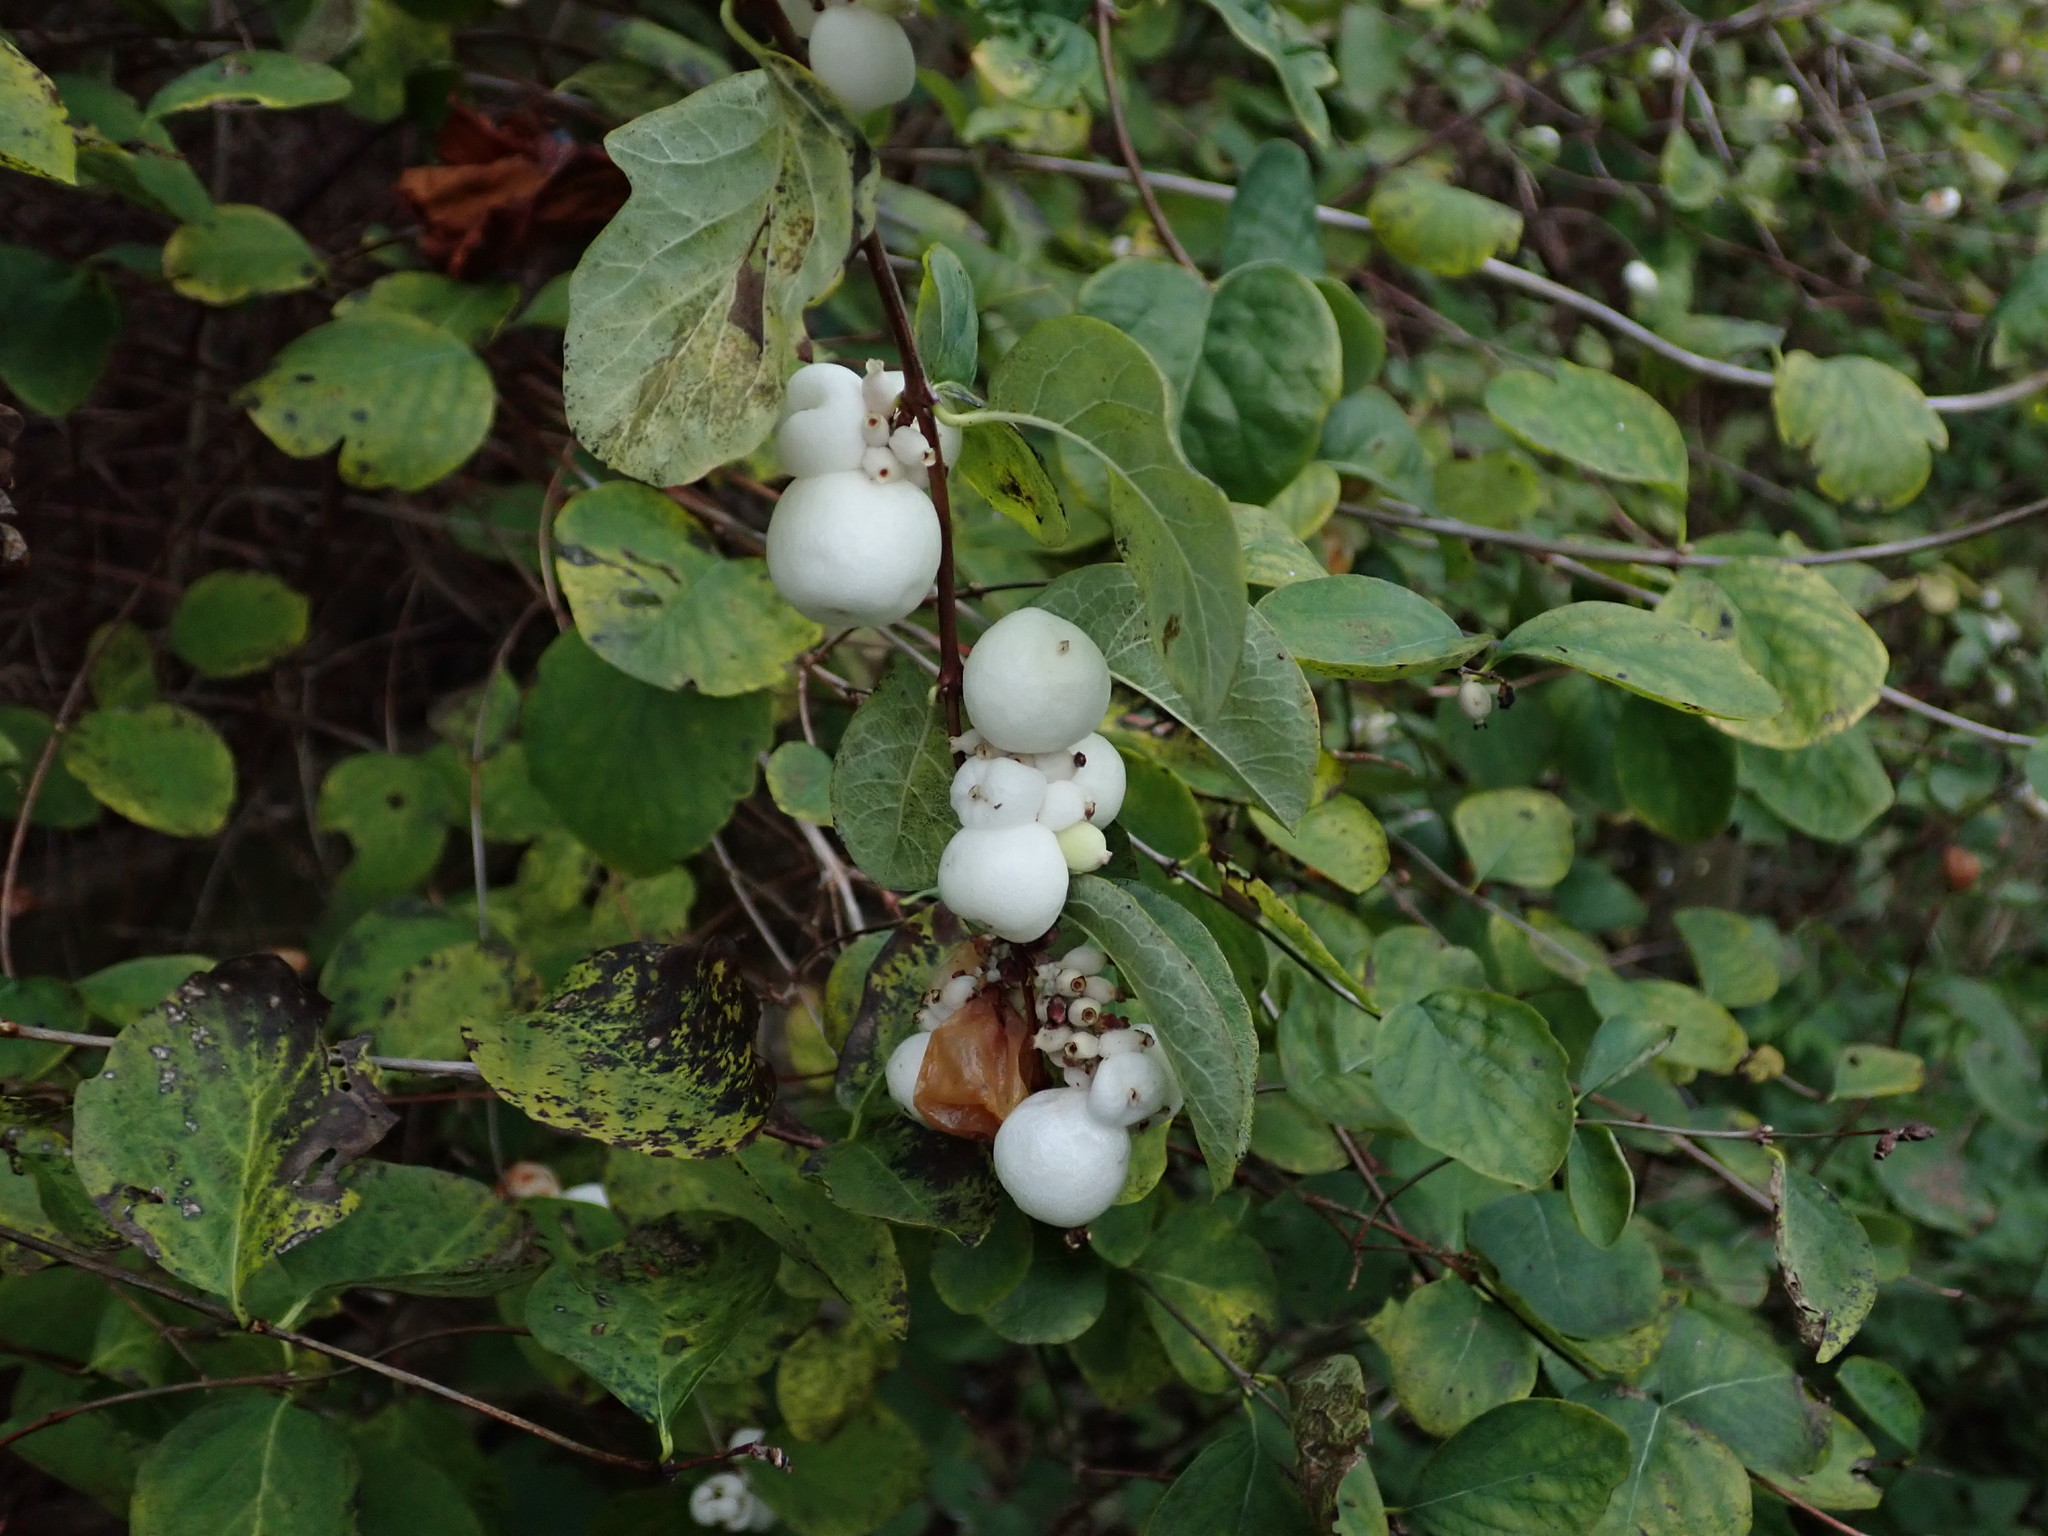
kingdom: Plantae
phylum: Tracheophyta
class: Magnoliopsida
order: Dipsacales
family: Caprifoliaceae
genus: Symphoricarpos
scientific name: Symphoricarpos albus
